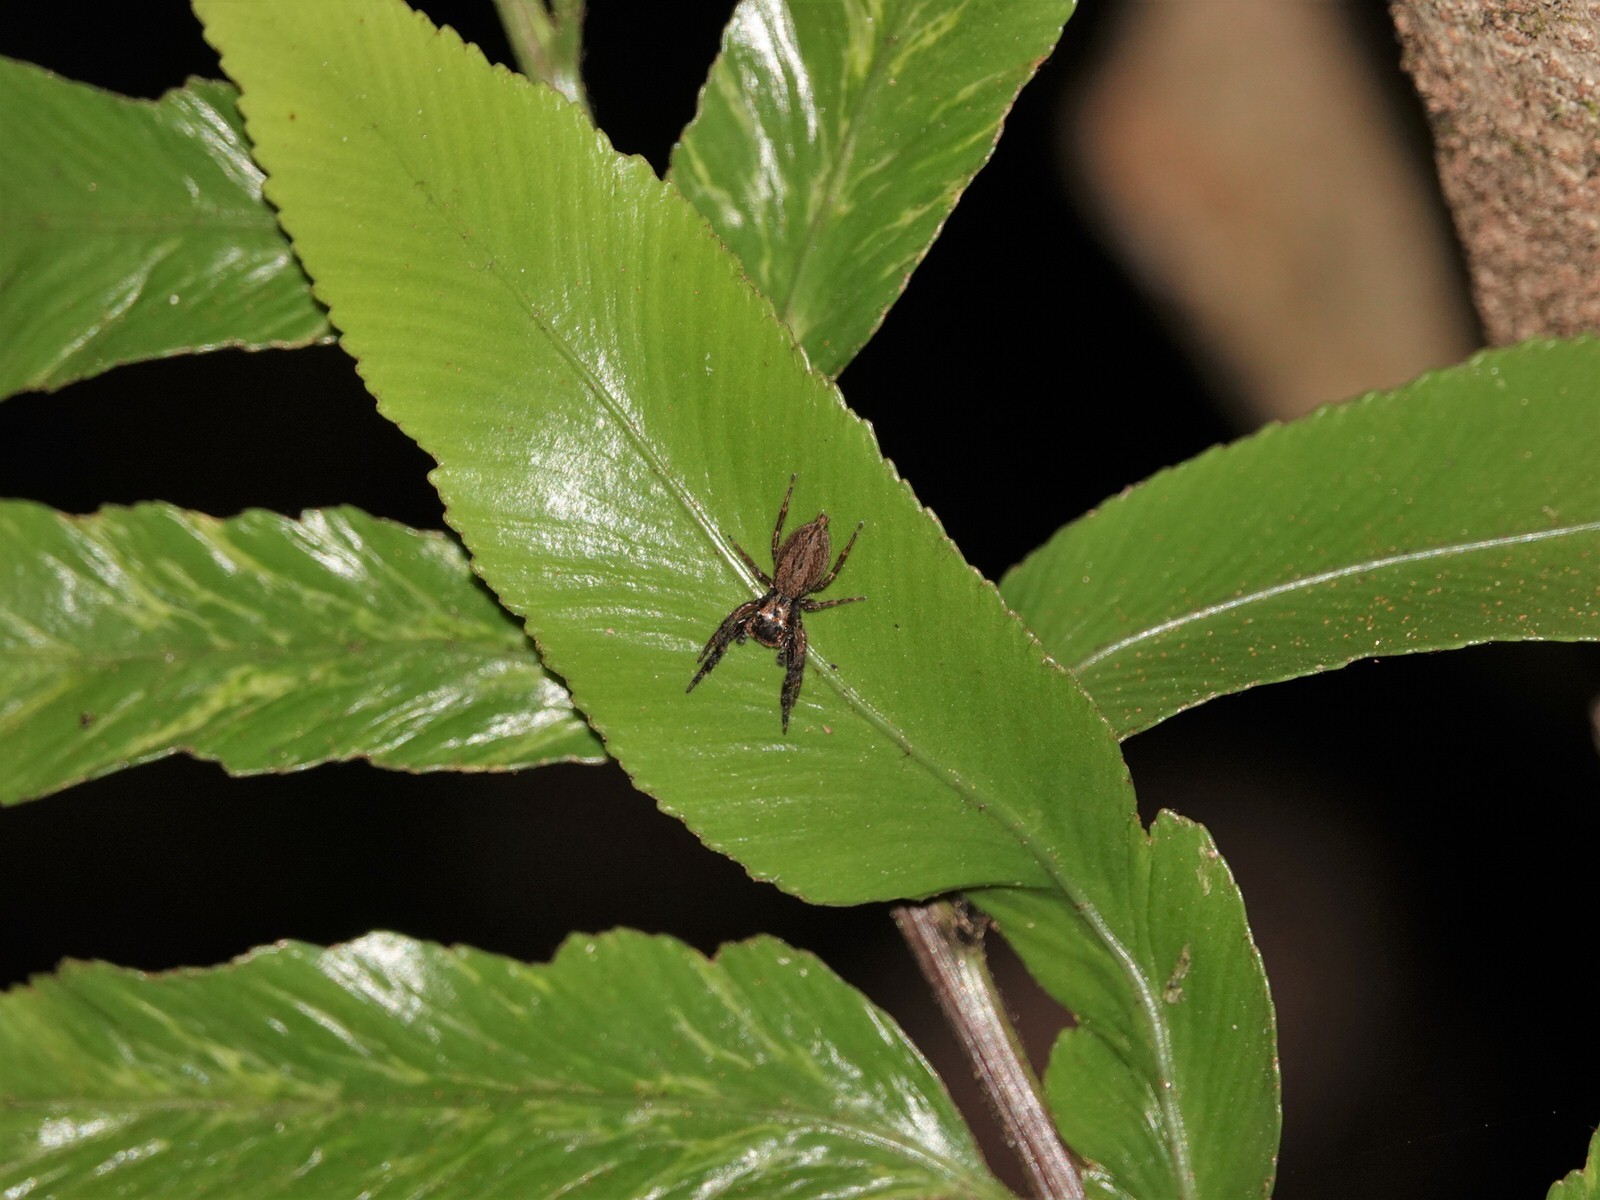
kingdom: Animalia
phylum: Arthropoda
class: Arachnida
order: Araneae
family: Salticidae
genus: Trite
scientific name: Trite auricoma
